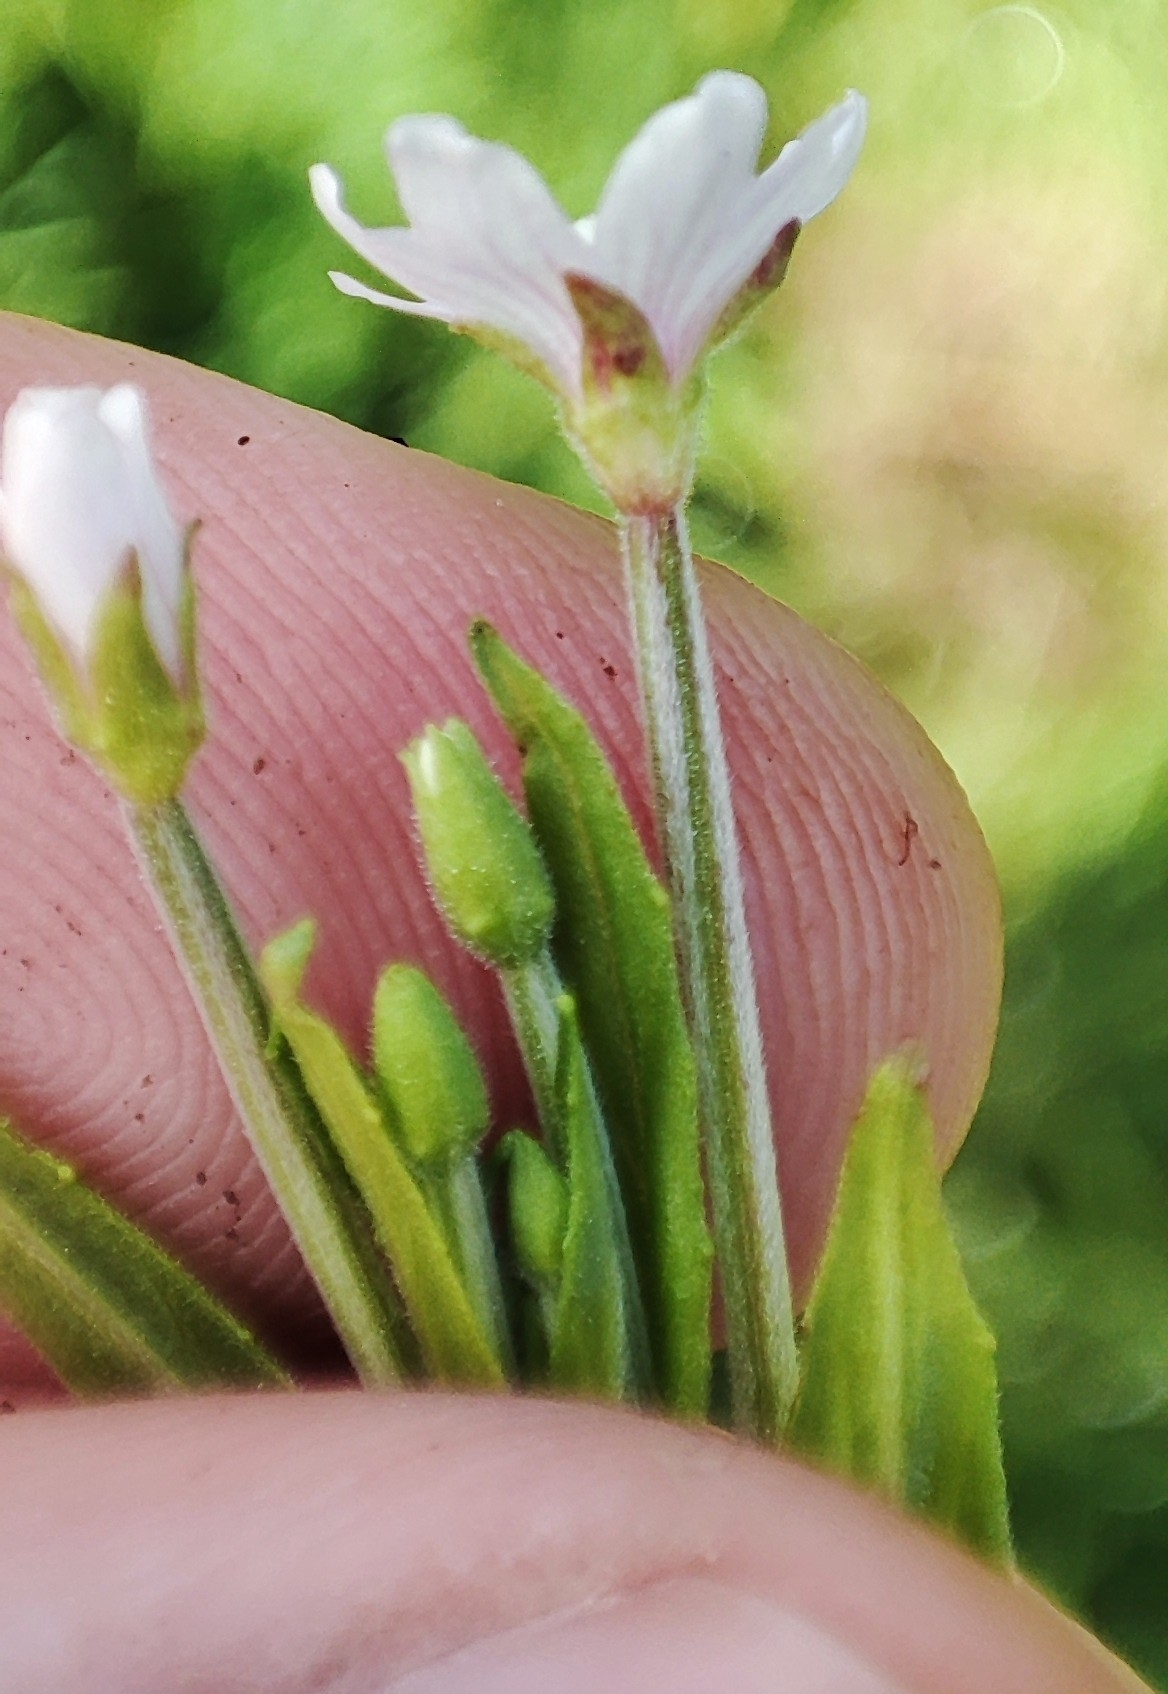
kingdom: Plantae
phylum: Tracheophyta
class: Magnoliopsida
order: Myrtales
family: Onagraceae
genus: Epilobium
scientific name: Epilobium palustre
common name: Marsh willowherb
